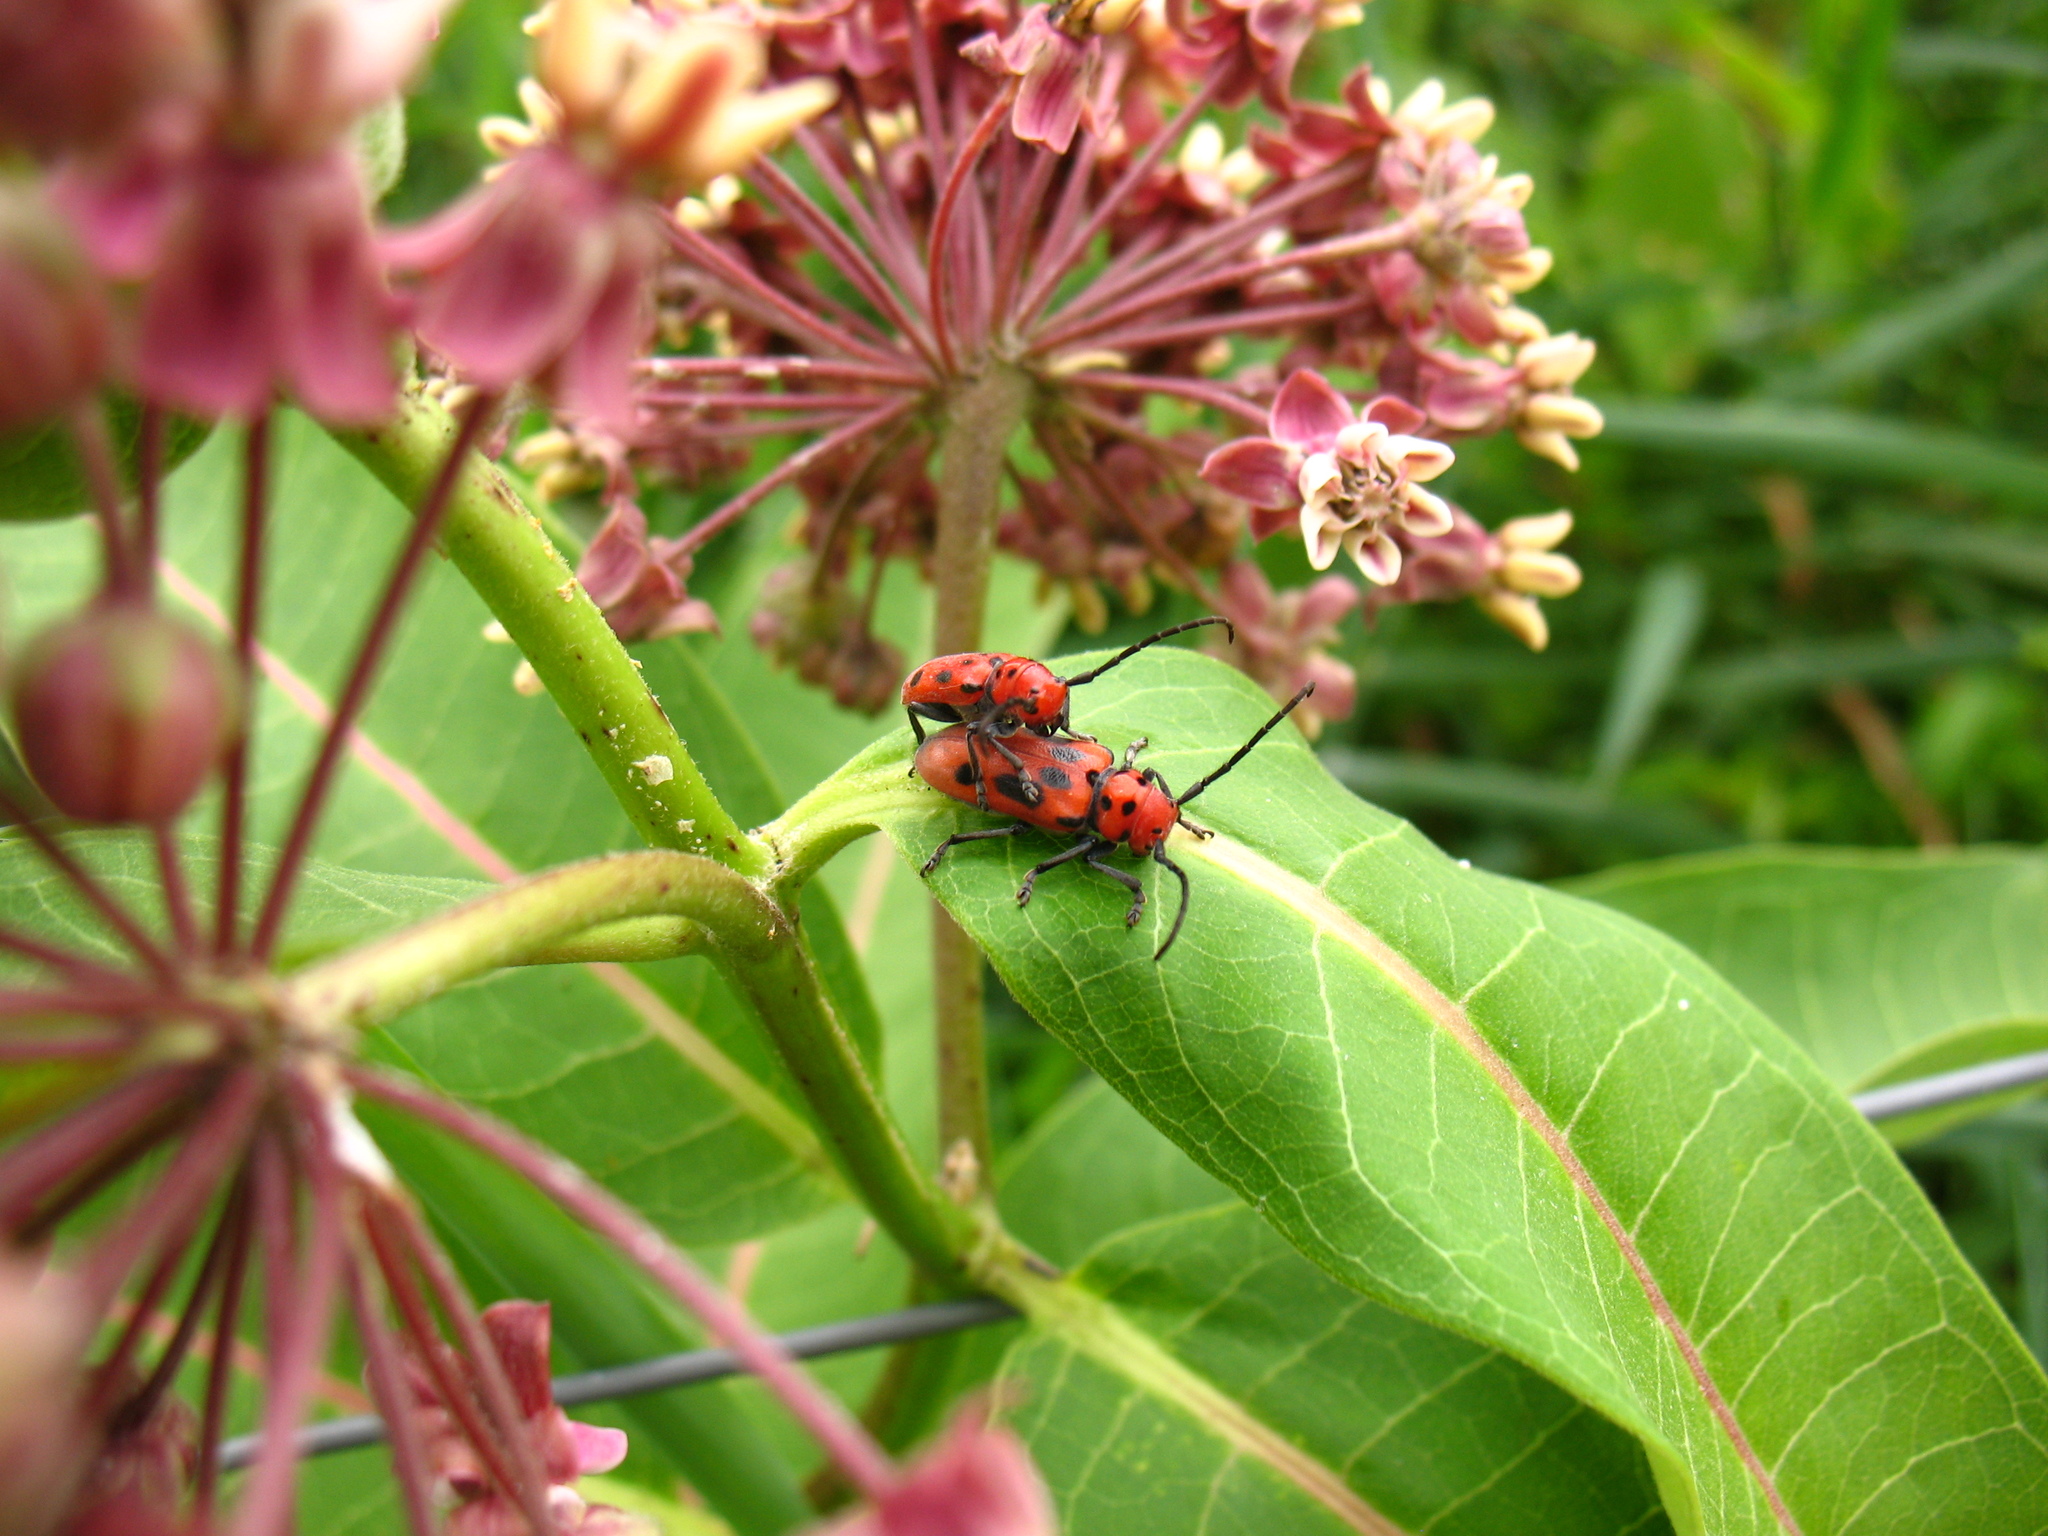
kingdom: Plantae
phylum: Tracheophyta
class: Magnoliopsida
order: Gentianales
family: Apocynaceae
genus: Asclepias
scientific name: Asclepias syriaca
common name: Common milkweed
